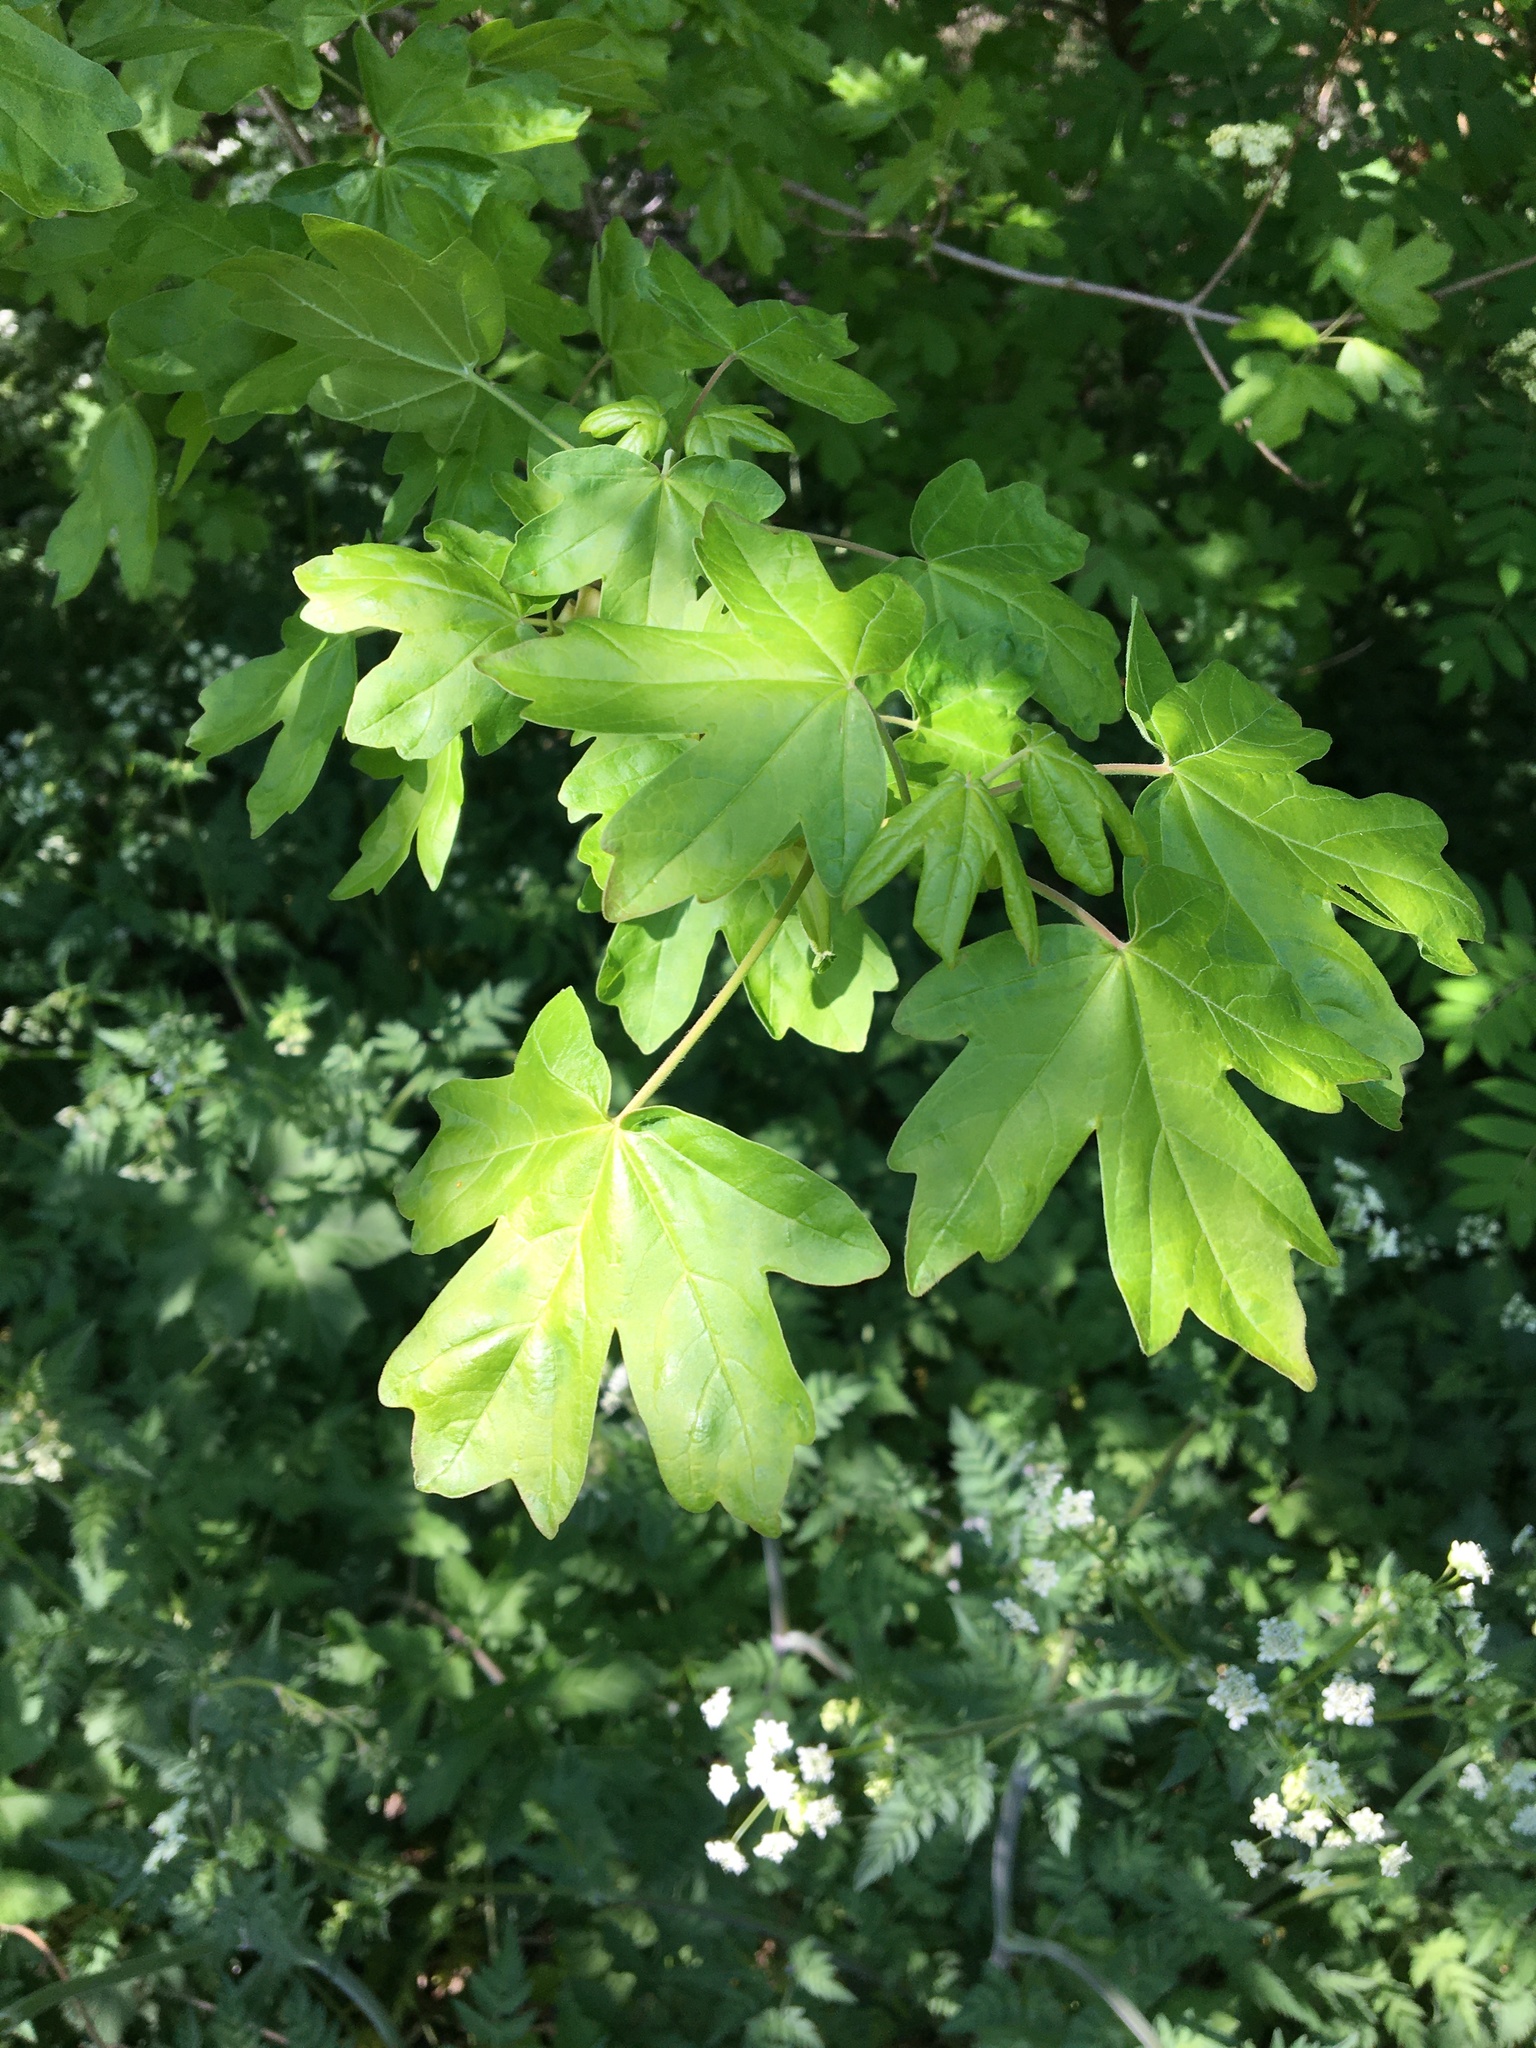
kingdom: Plantae
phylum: Tracheophyta
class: Magnoliopsida
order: Sapindales
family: Sapindaceae
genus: Acer
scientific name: Acer campestre
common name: Field maple
